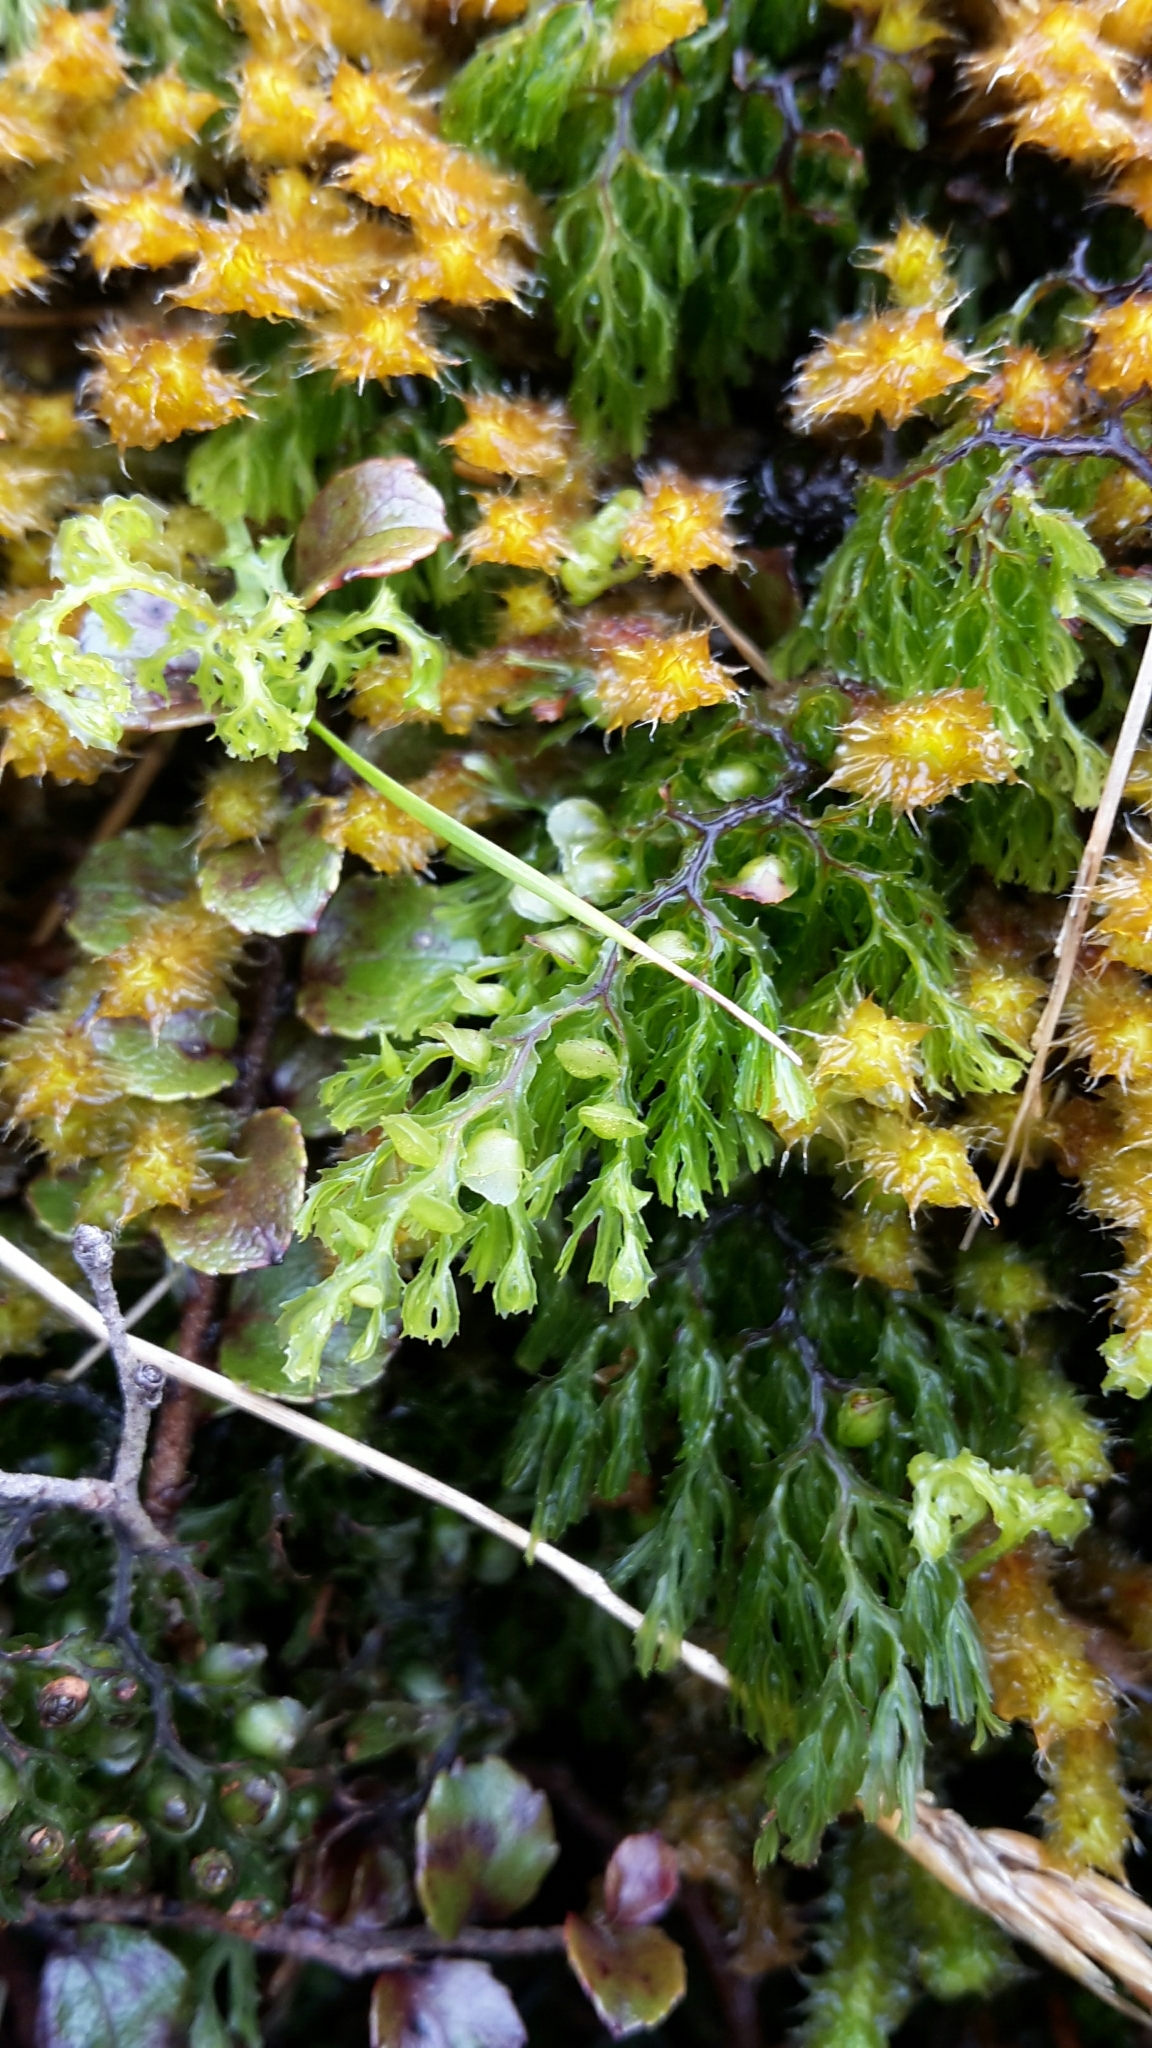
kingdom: Plantae
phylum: Tracheophyta
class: Polypodiopsida
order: Hymenophyllales
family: Hymenophyllaceae
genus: Hymenophyllum
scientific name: Hymenophyllum multifidum
